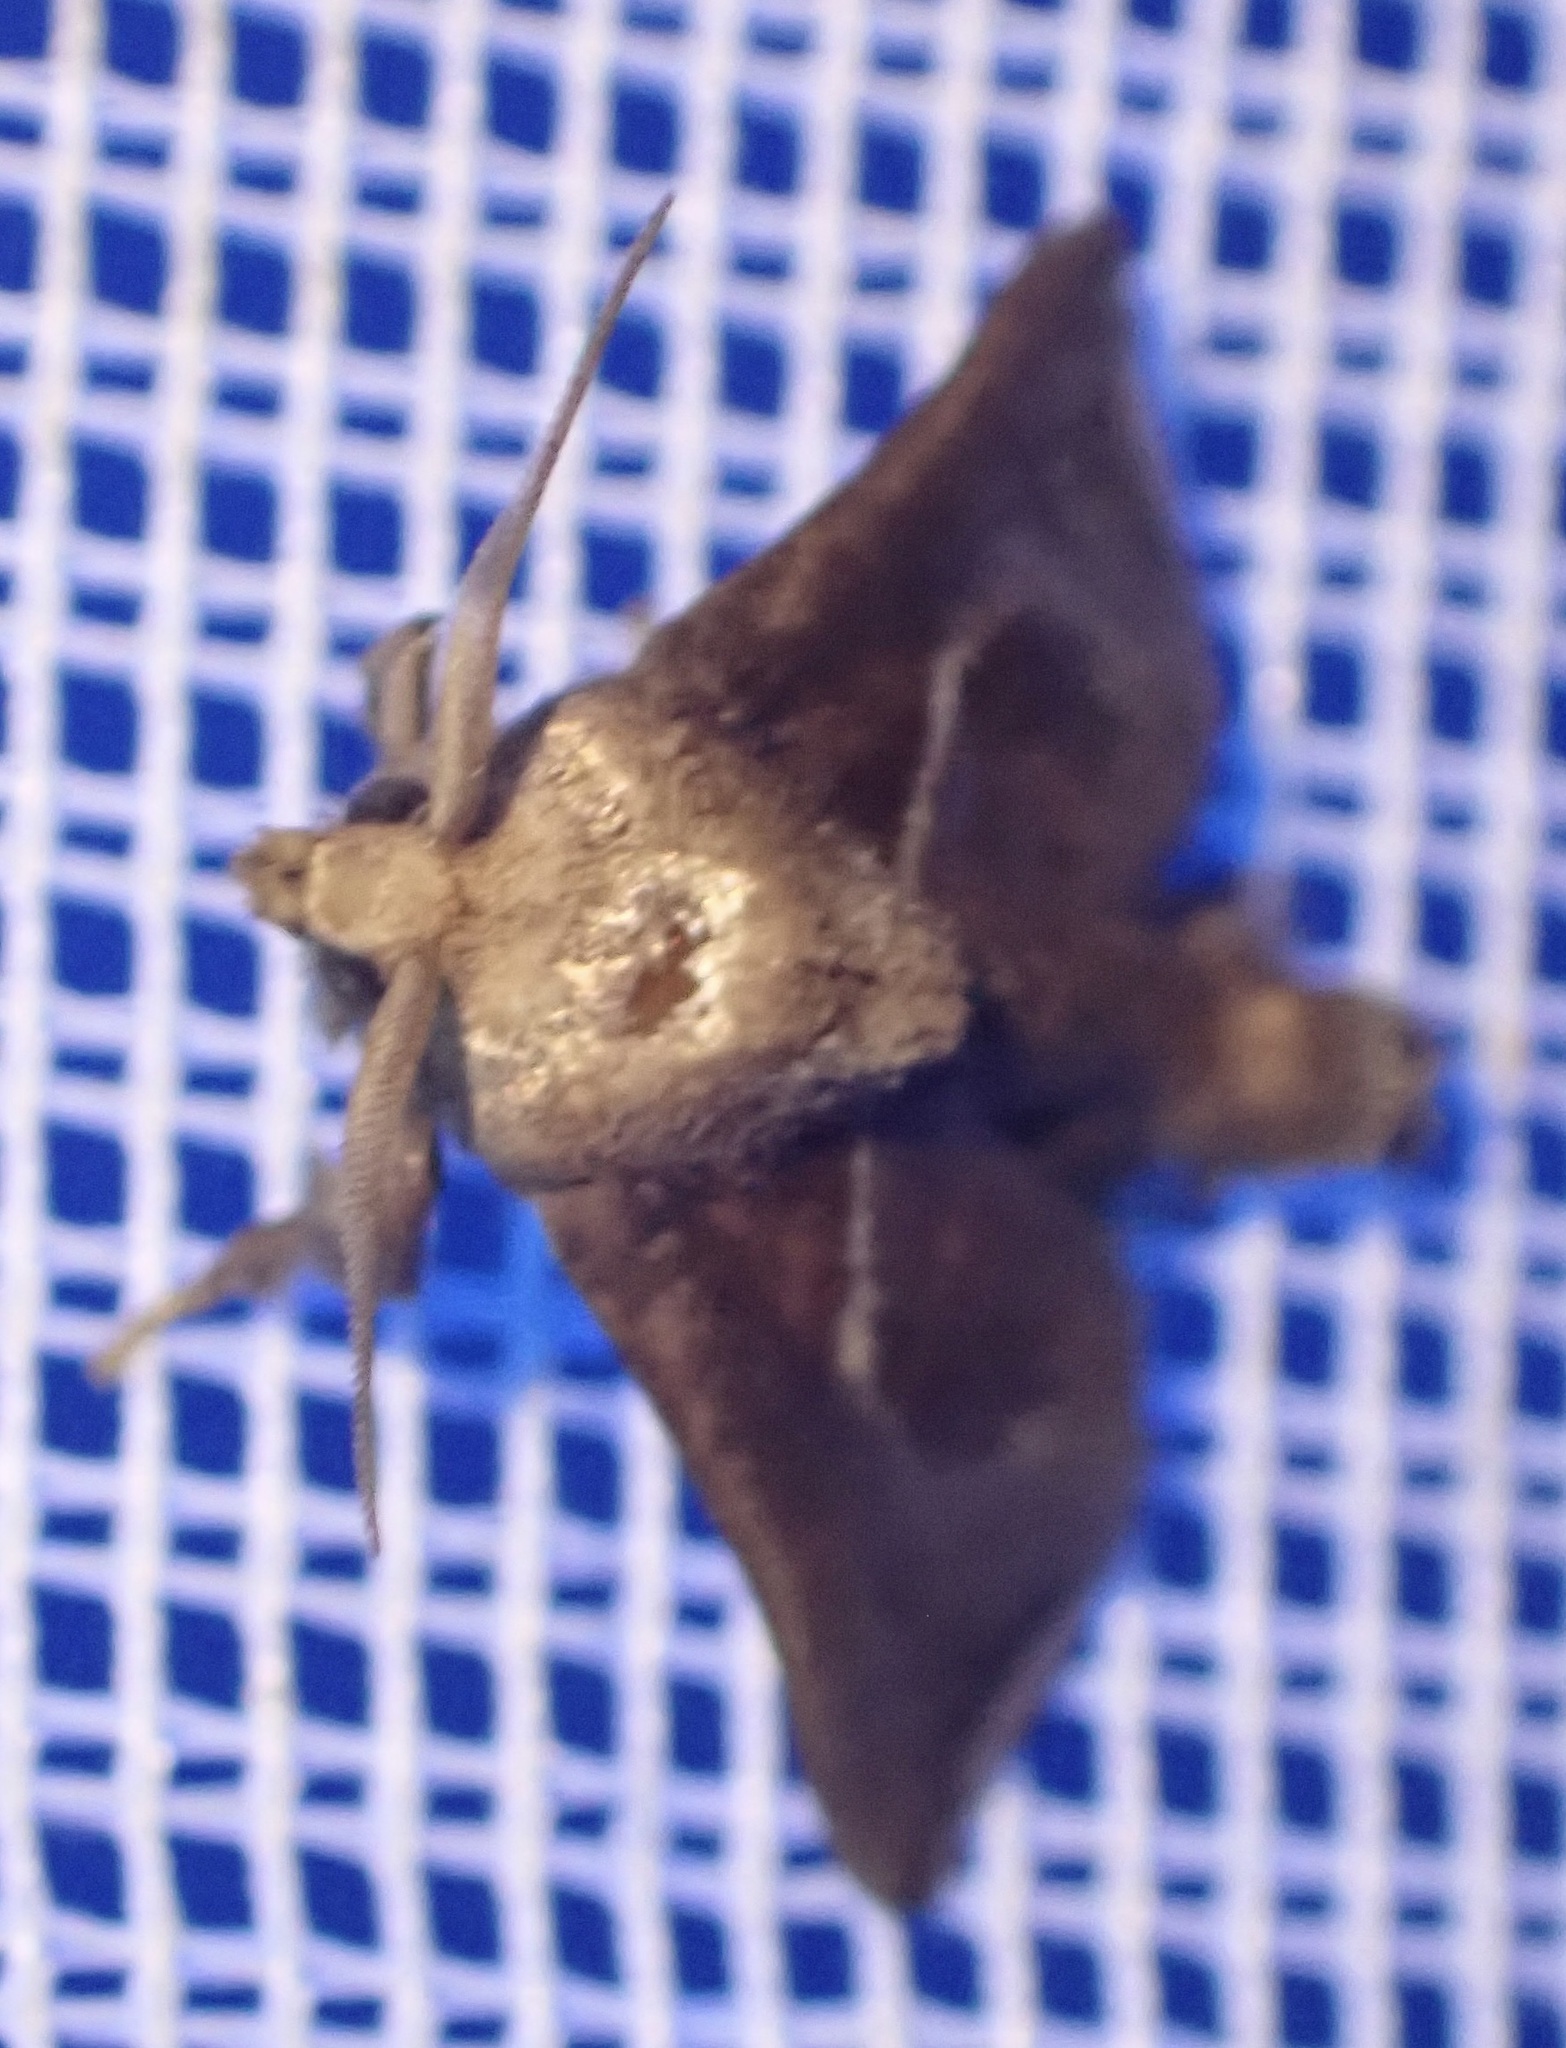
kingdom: Animalia
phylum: Arthropoda
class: Insecta
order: Lepidoptera
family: Limacodidae
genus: Anilina
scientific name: Anilina plebeia
